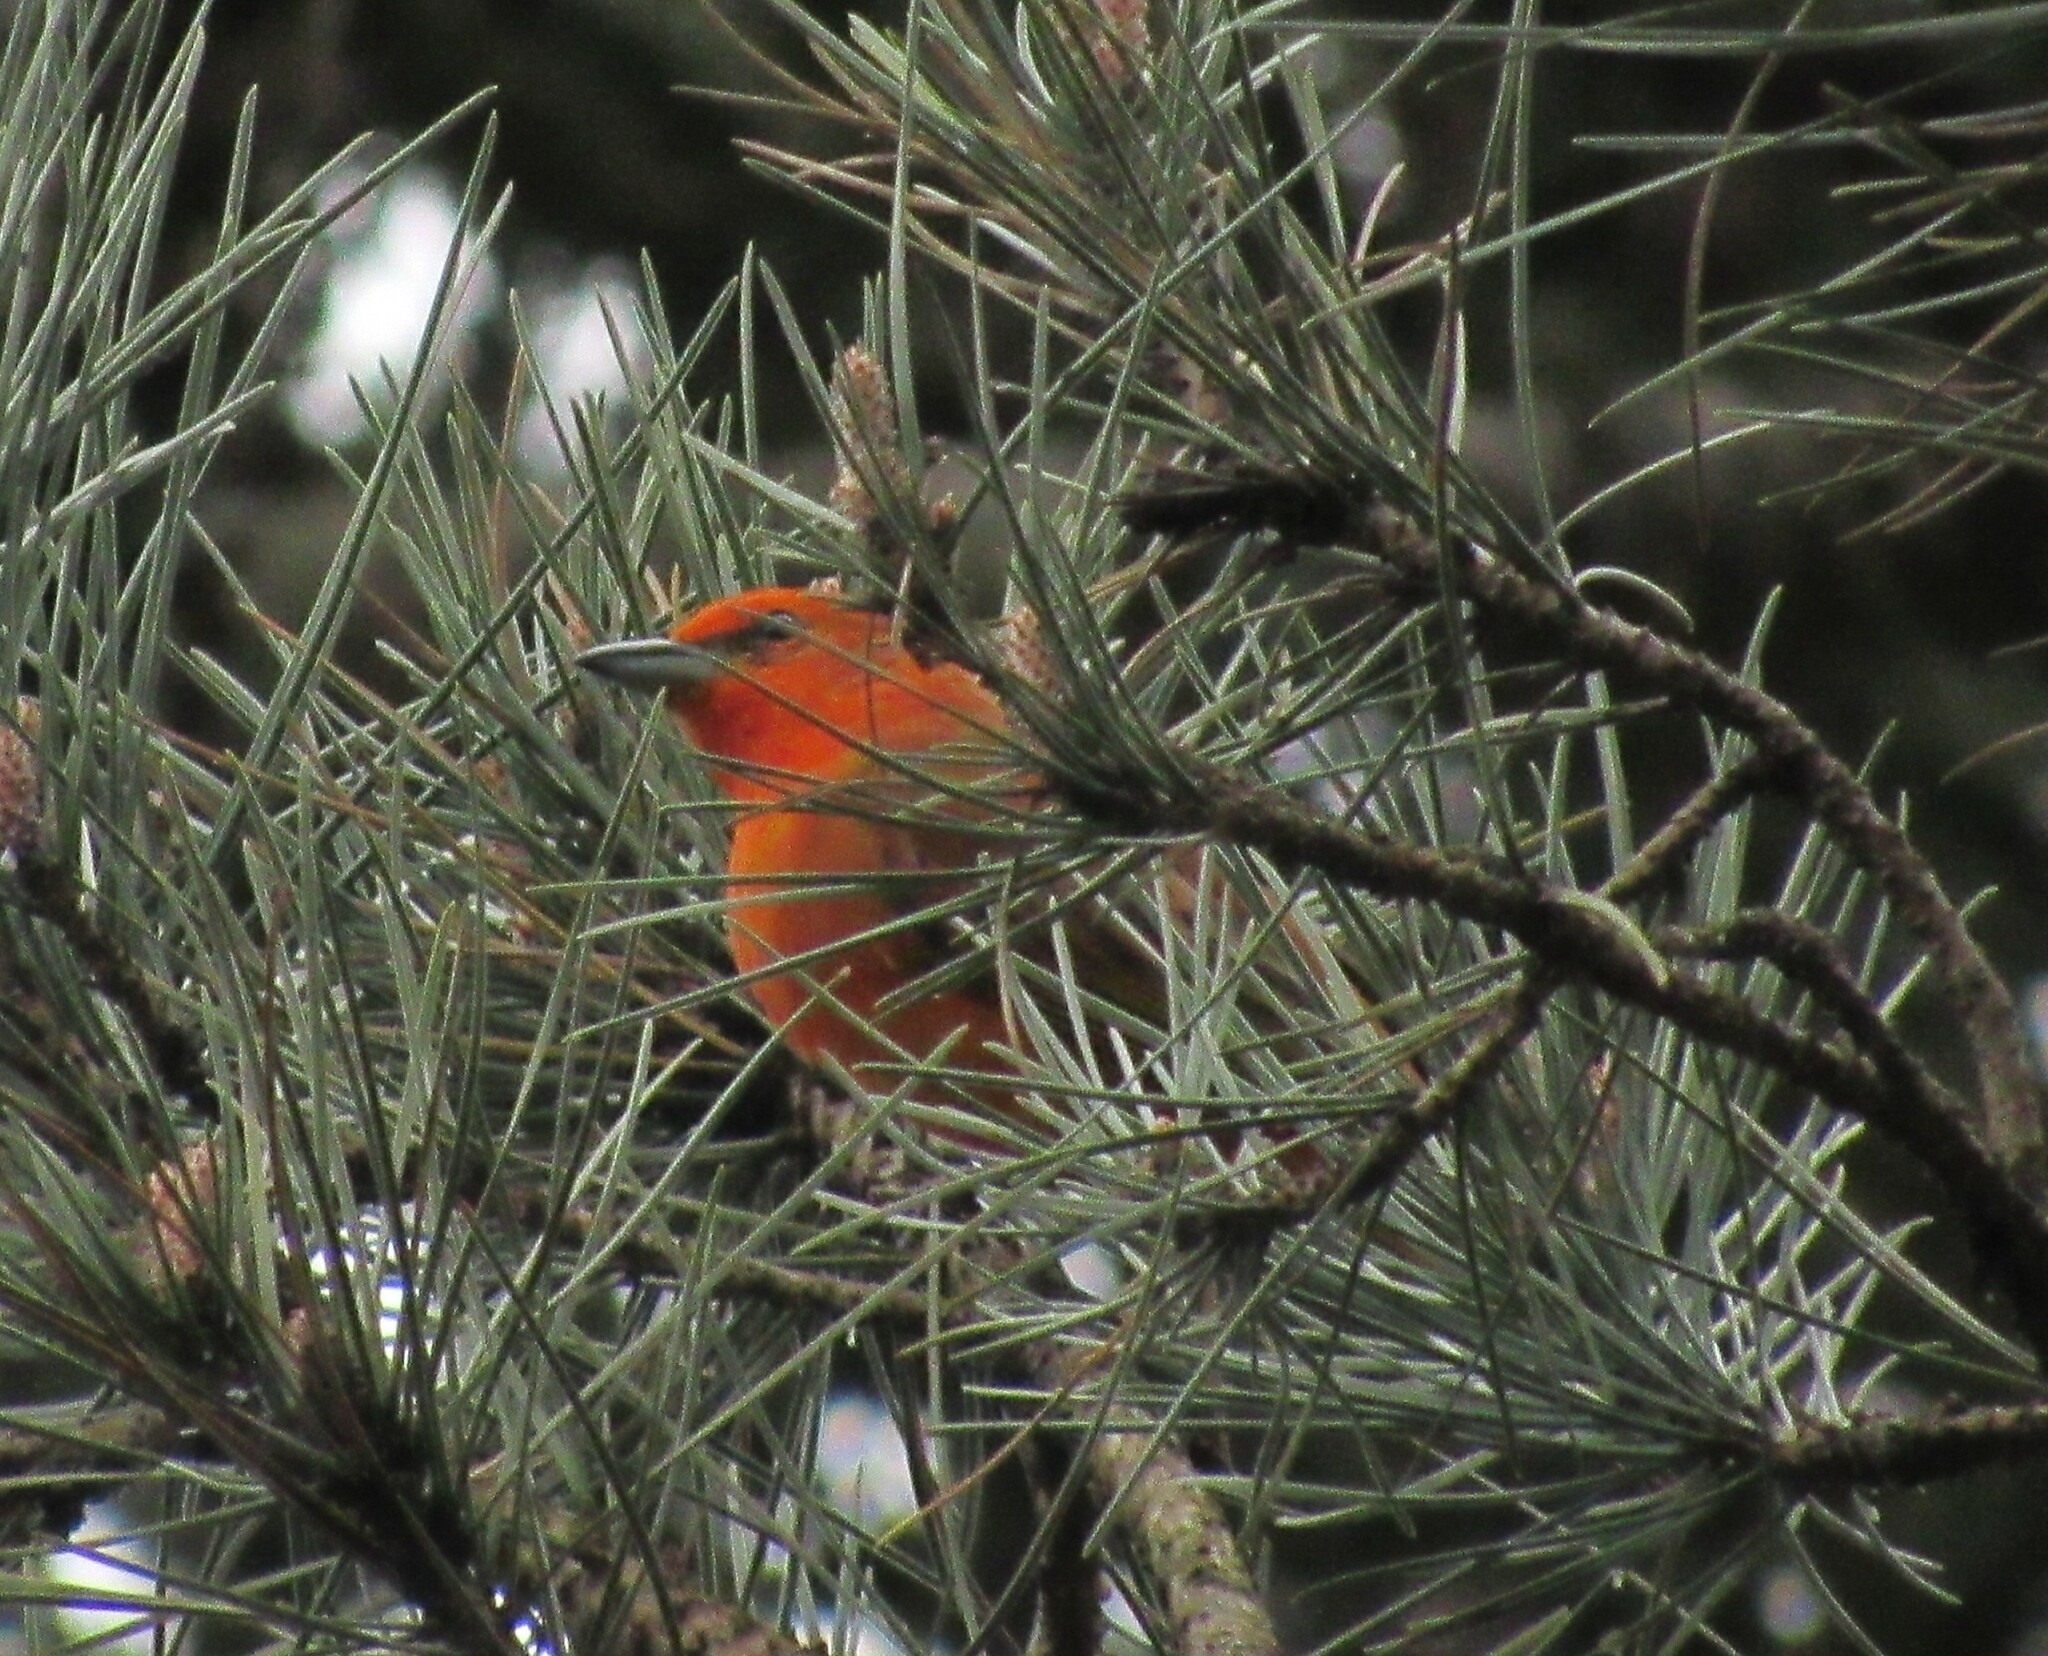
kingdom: Animalia
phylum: Chordata
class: Aves
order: Passeriformes
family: Cardinalidae
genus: Piranga
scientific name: Piranga flava
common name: Red tanager
